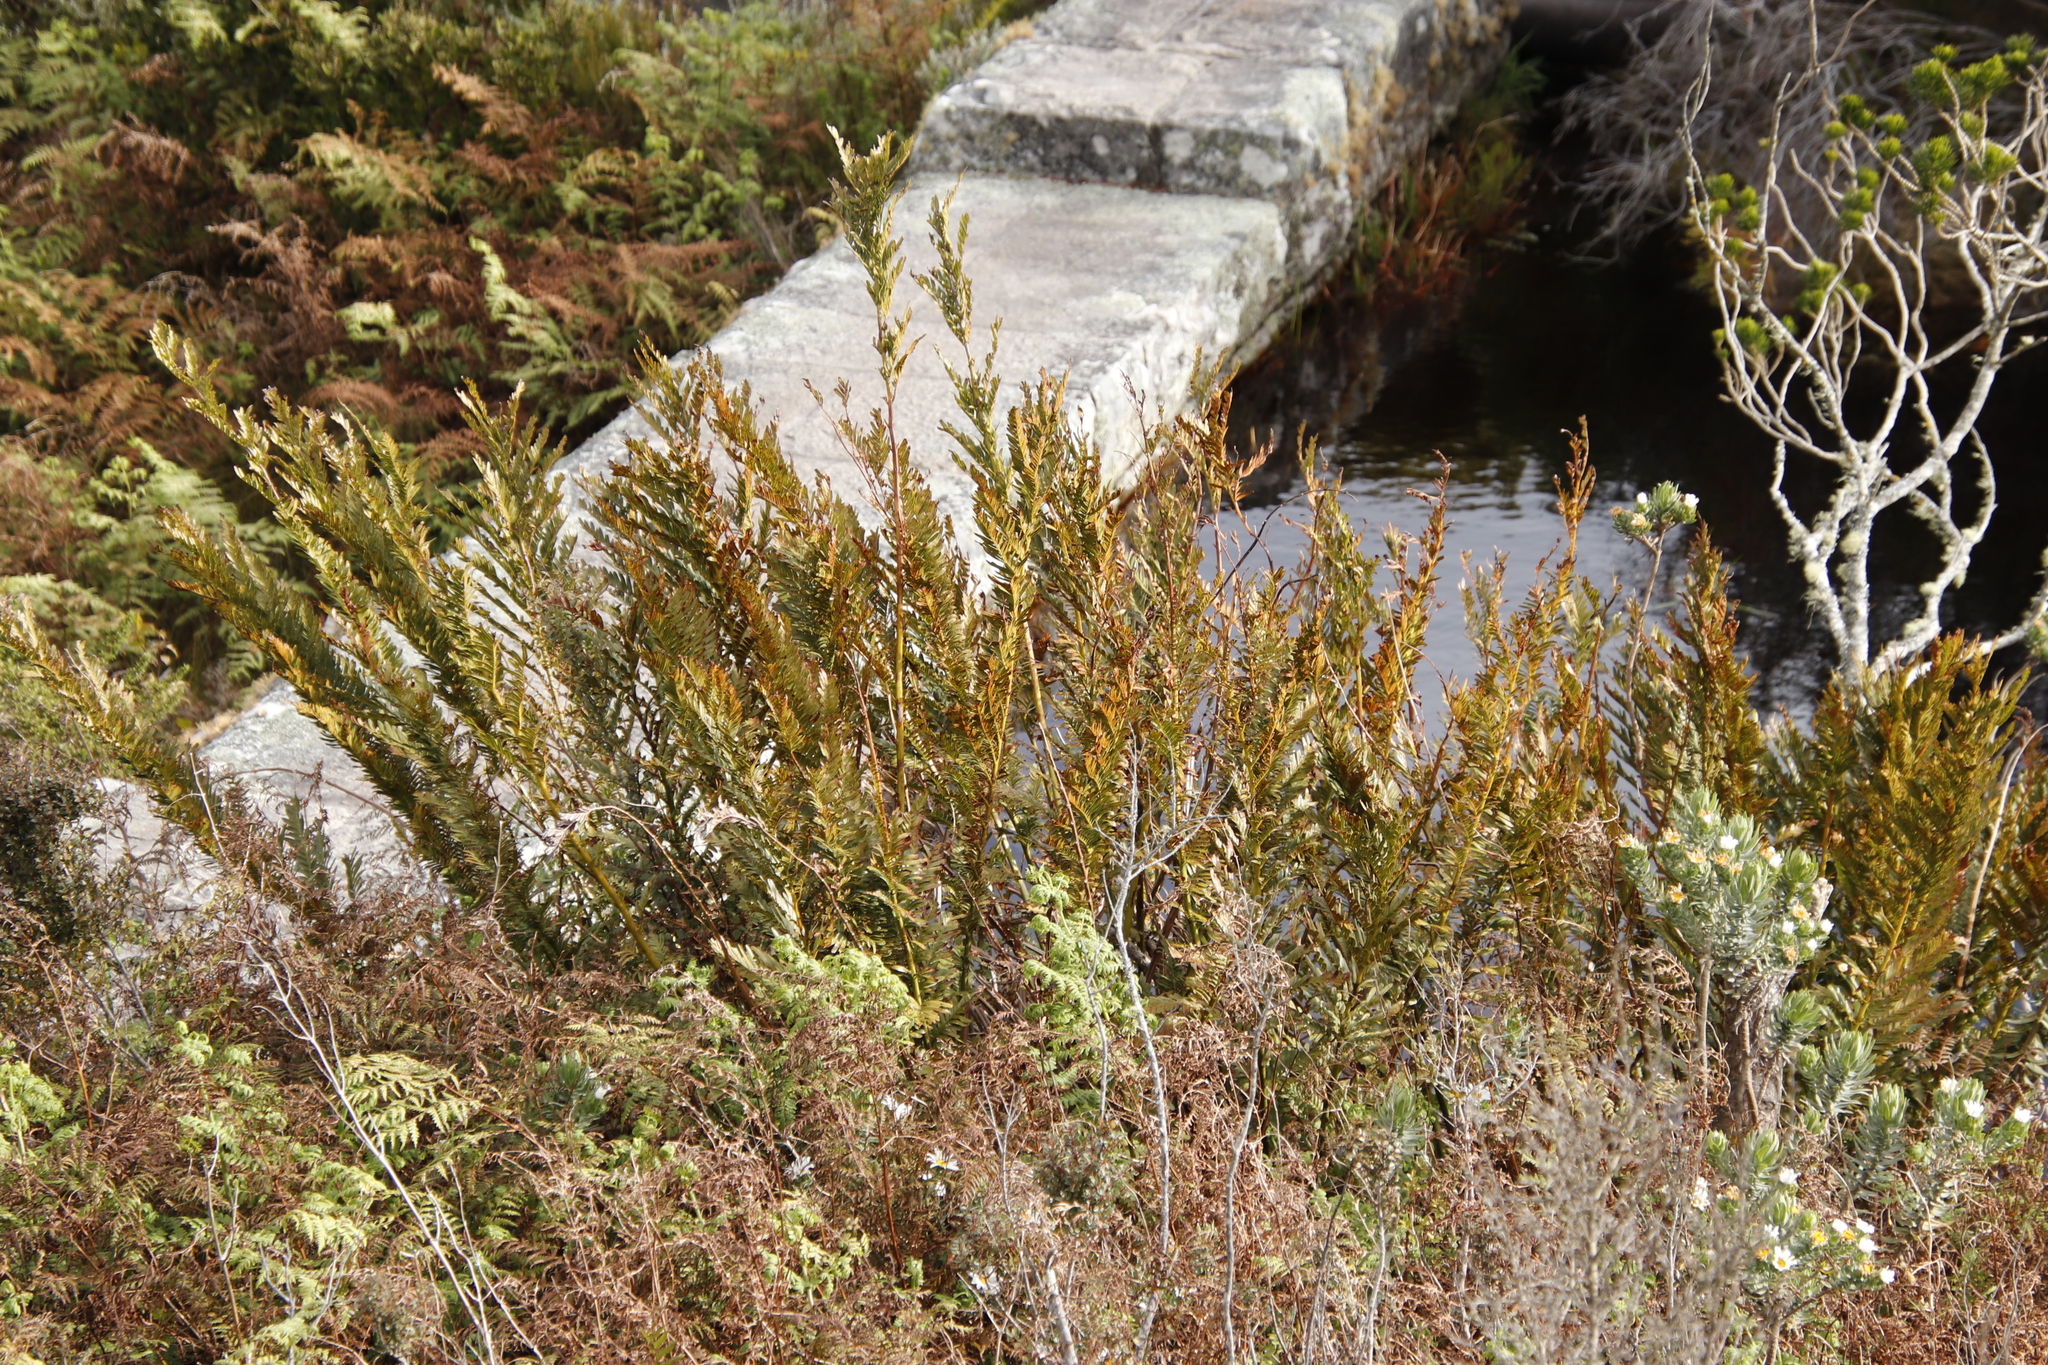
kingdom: Plantae
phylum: Tracheophyta
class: Polypodiopsida
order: Osmundales
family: Osmundaceae
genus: Todea
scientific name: Todea barbara
